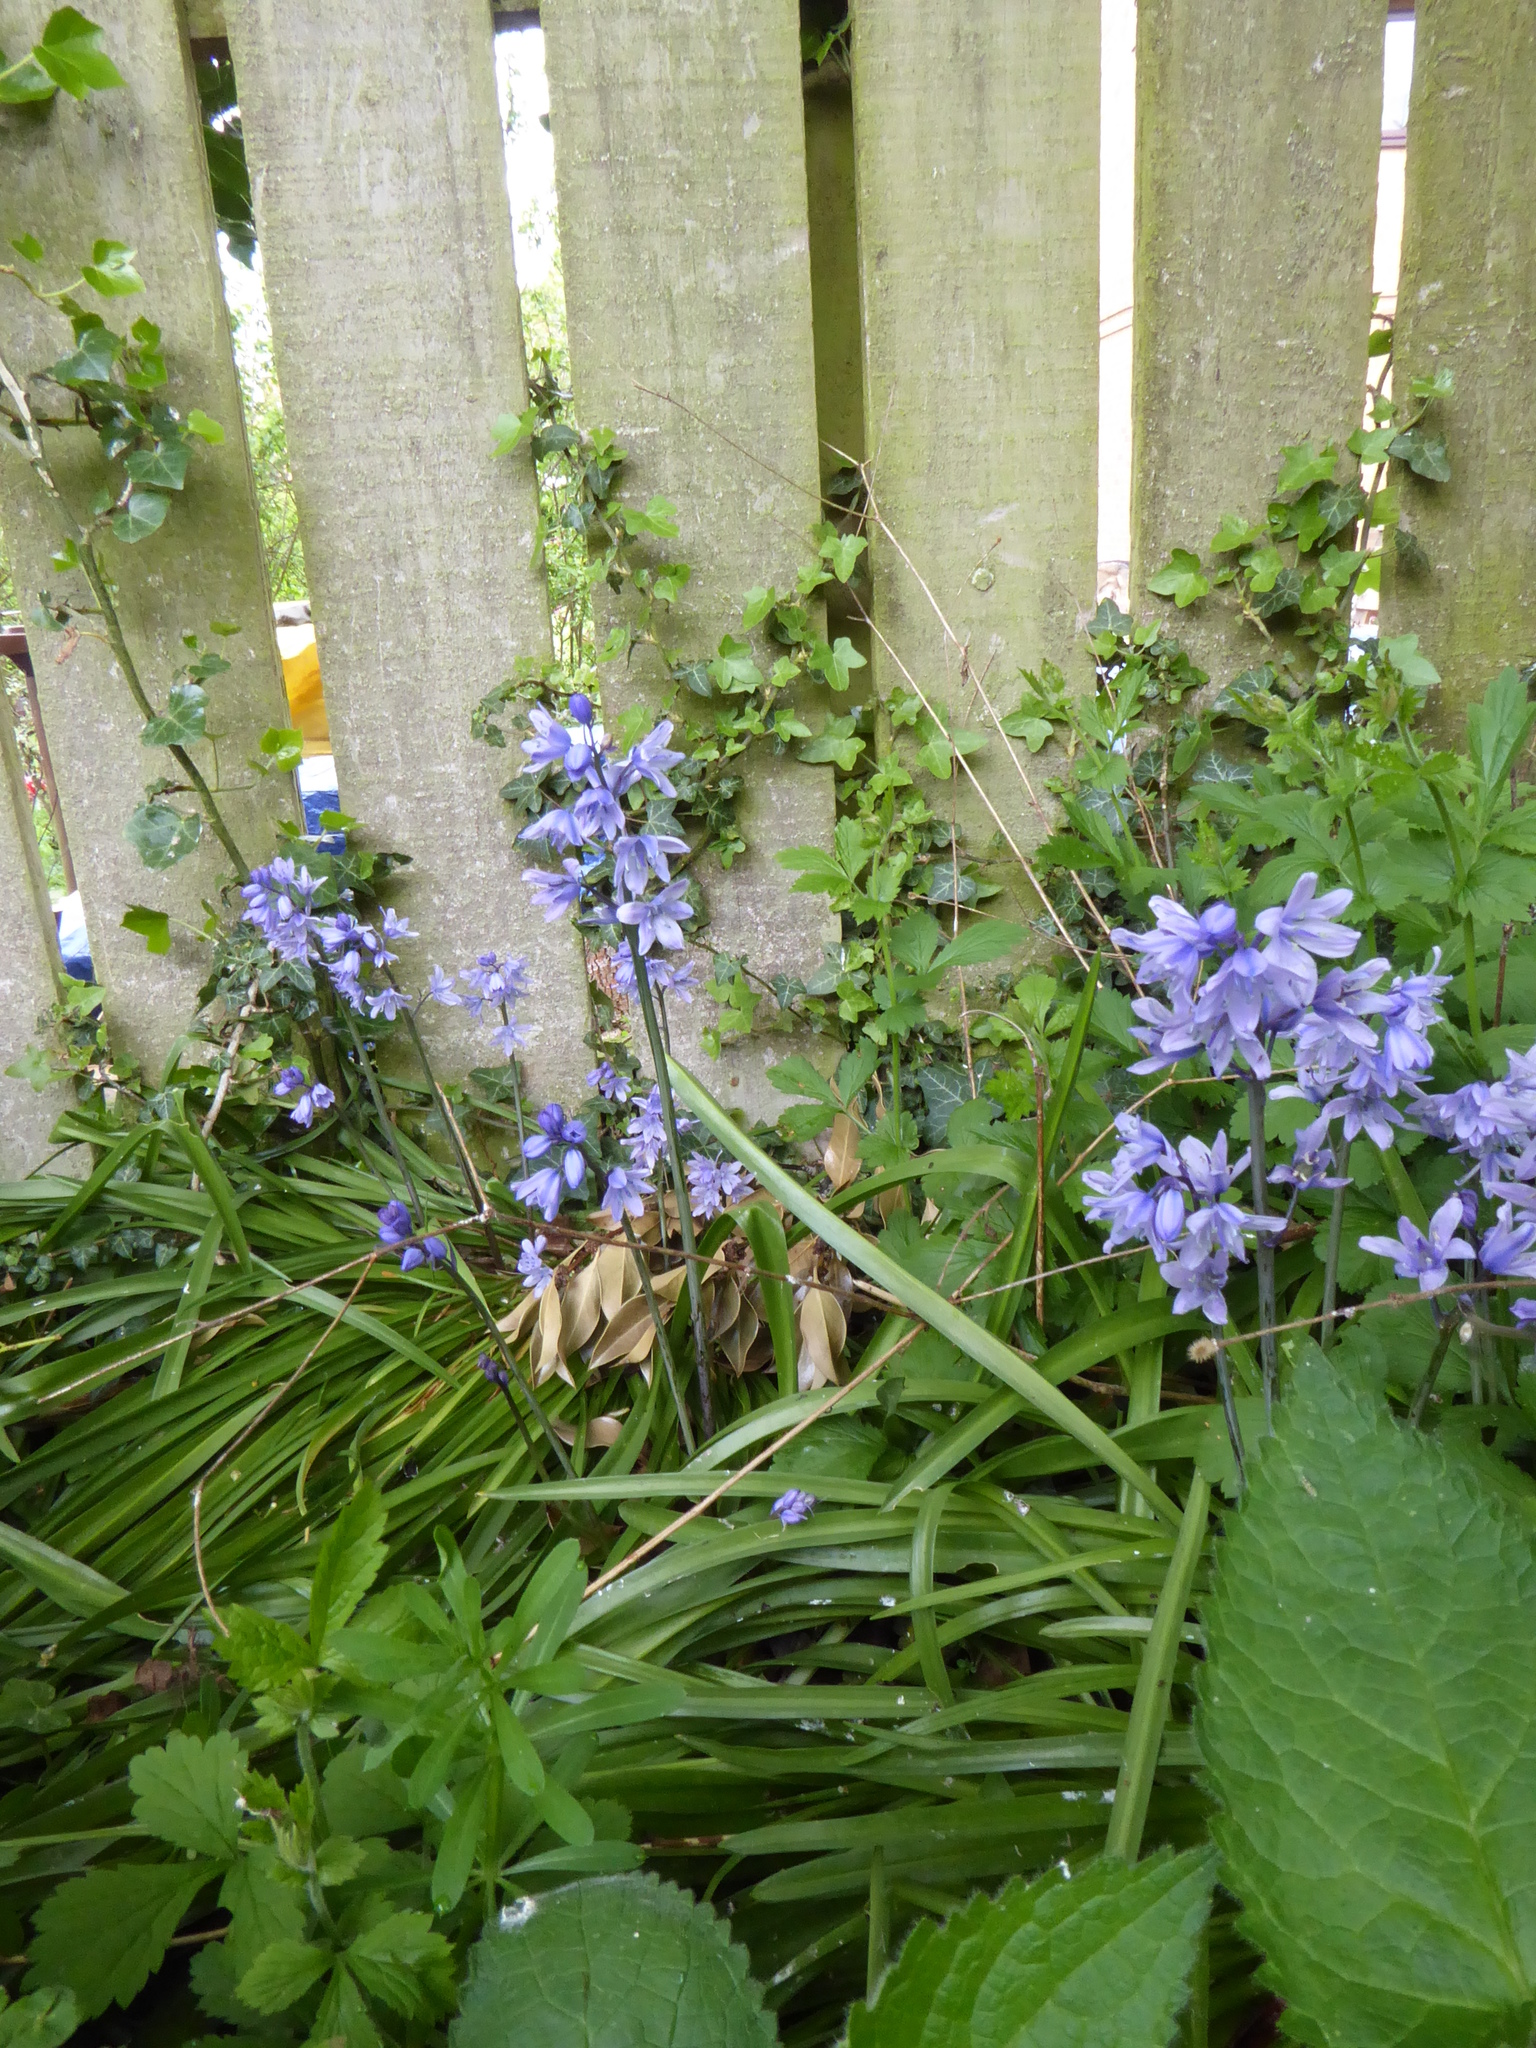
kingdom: Plantae
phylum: Tracheophyta
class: Liliopsida
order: Asparagales
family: Asparagaceae
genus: Hyacinthoides
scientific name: Hyacinthoides hispanica
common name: Spanish bluebell
